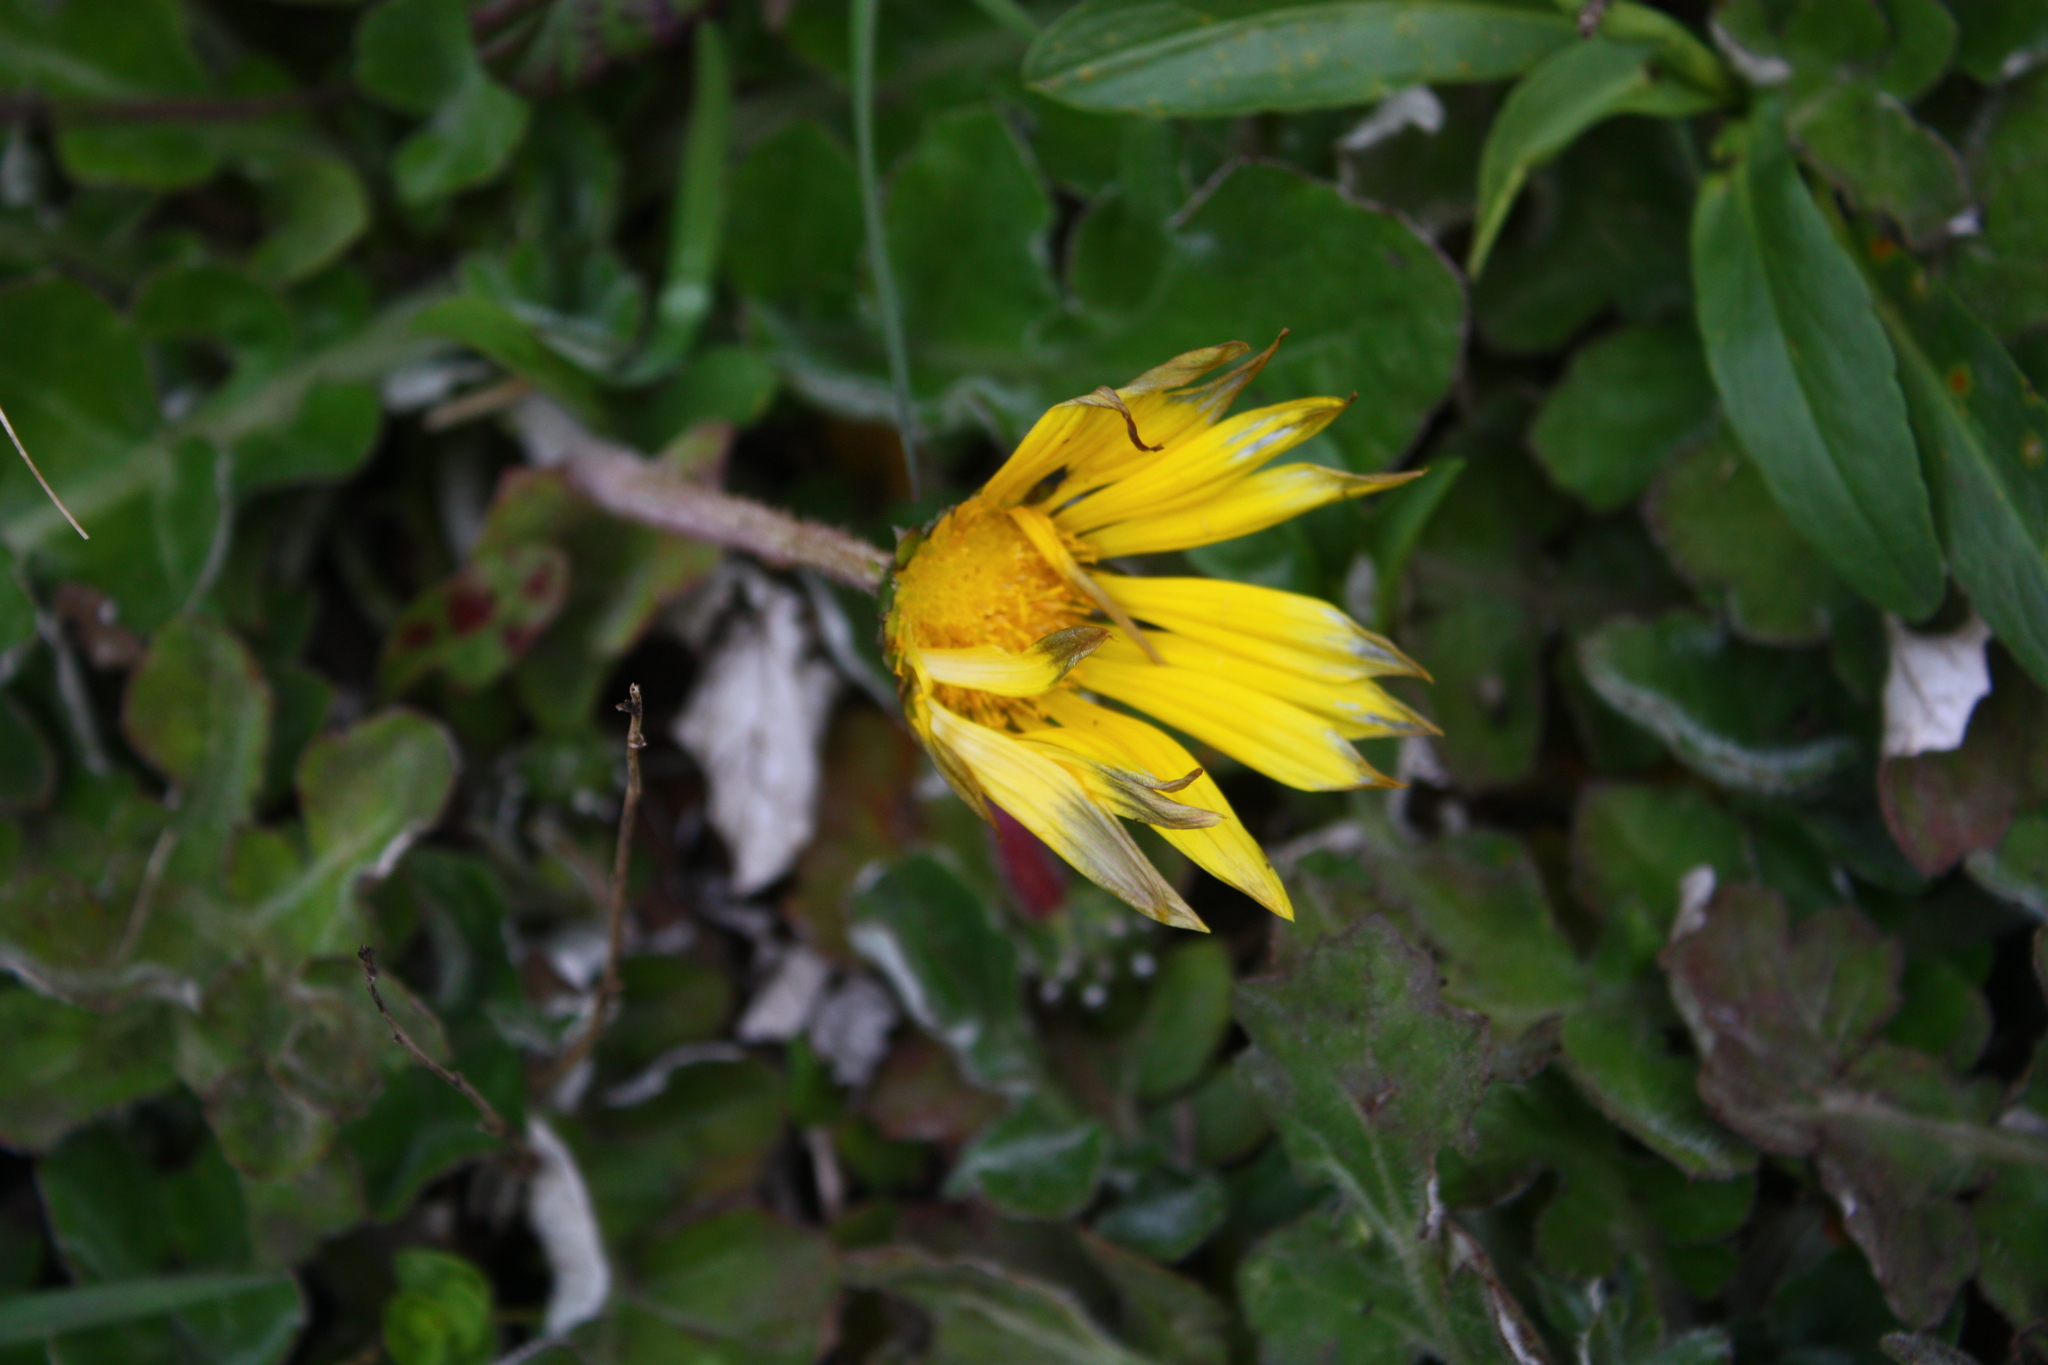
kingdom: Plantae
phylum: Tracheophyta
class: Magnoliopsida
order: Asterales
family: Asteraceae
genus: Arctotheca
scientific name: Arctotheca prostrata
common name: Capeweed
